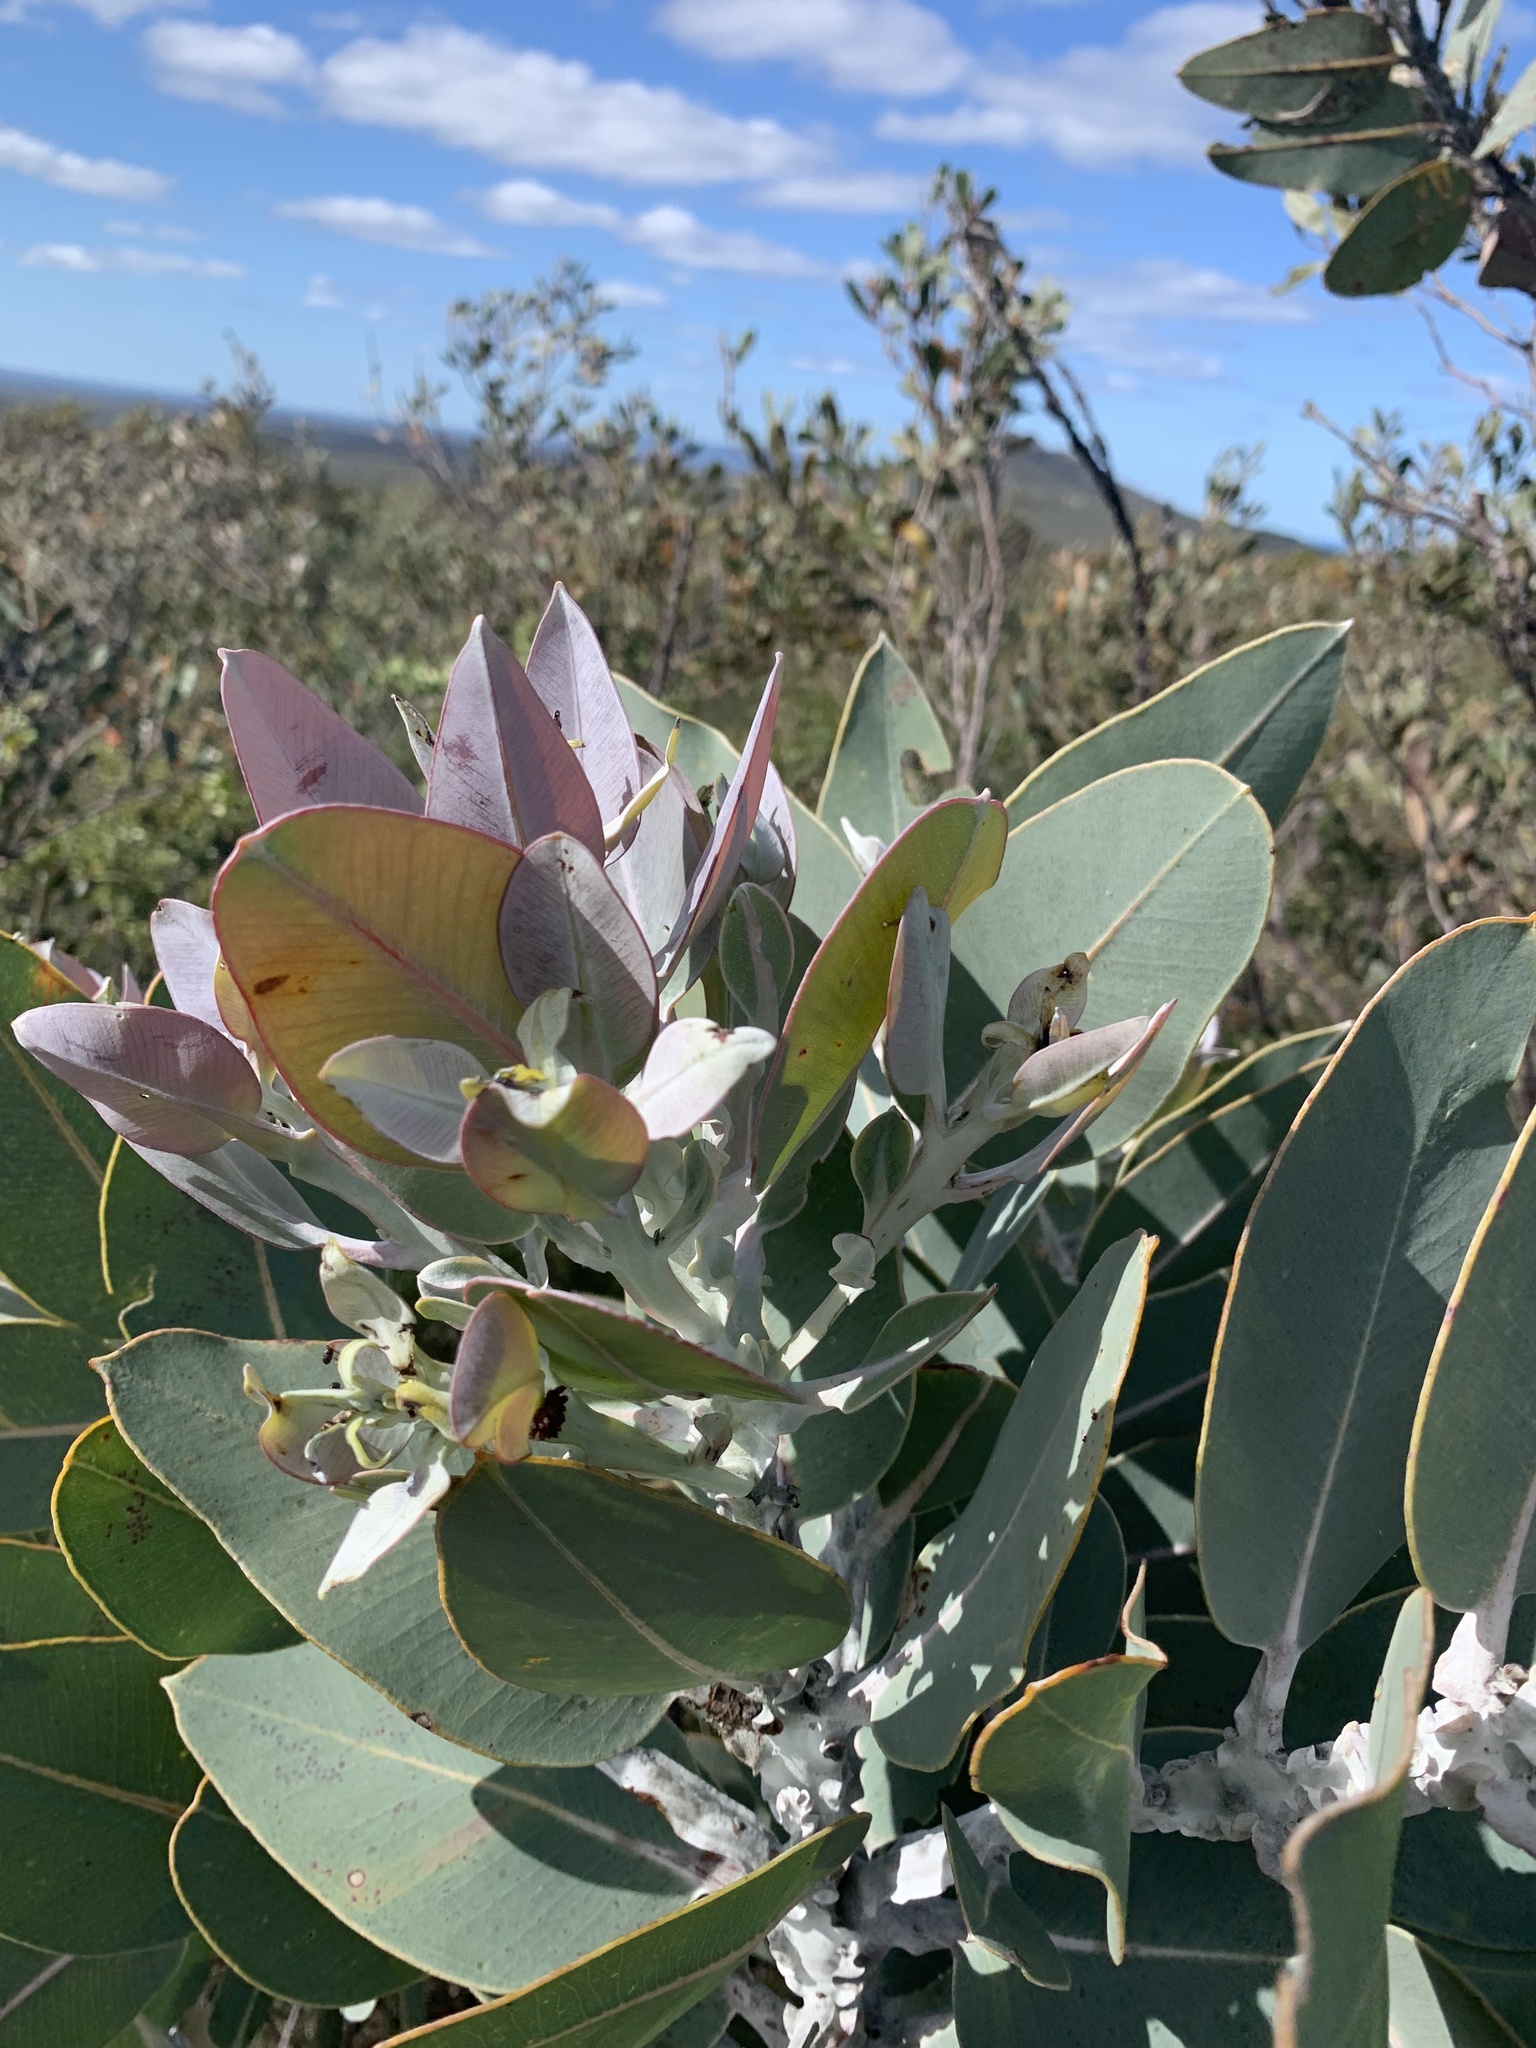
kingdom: Plantae
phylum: Tracheophyta
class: Magnoliopsida
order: Myrtales
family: Myrtaceae
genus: Eucalyptus
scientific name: Eucalyptus tetragona
